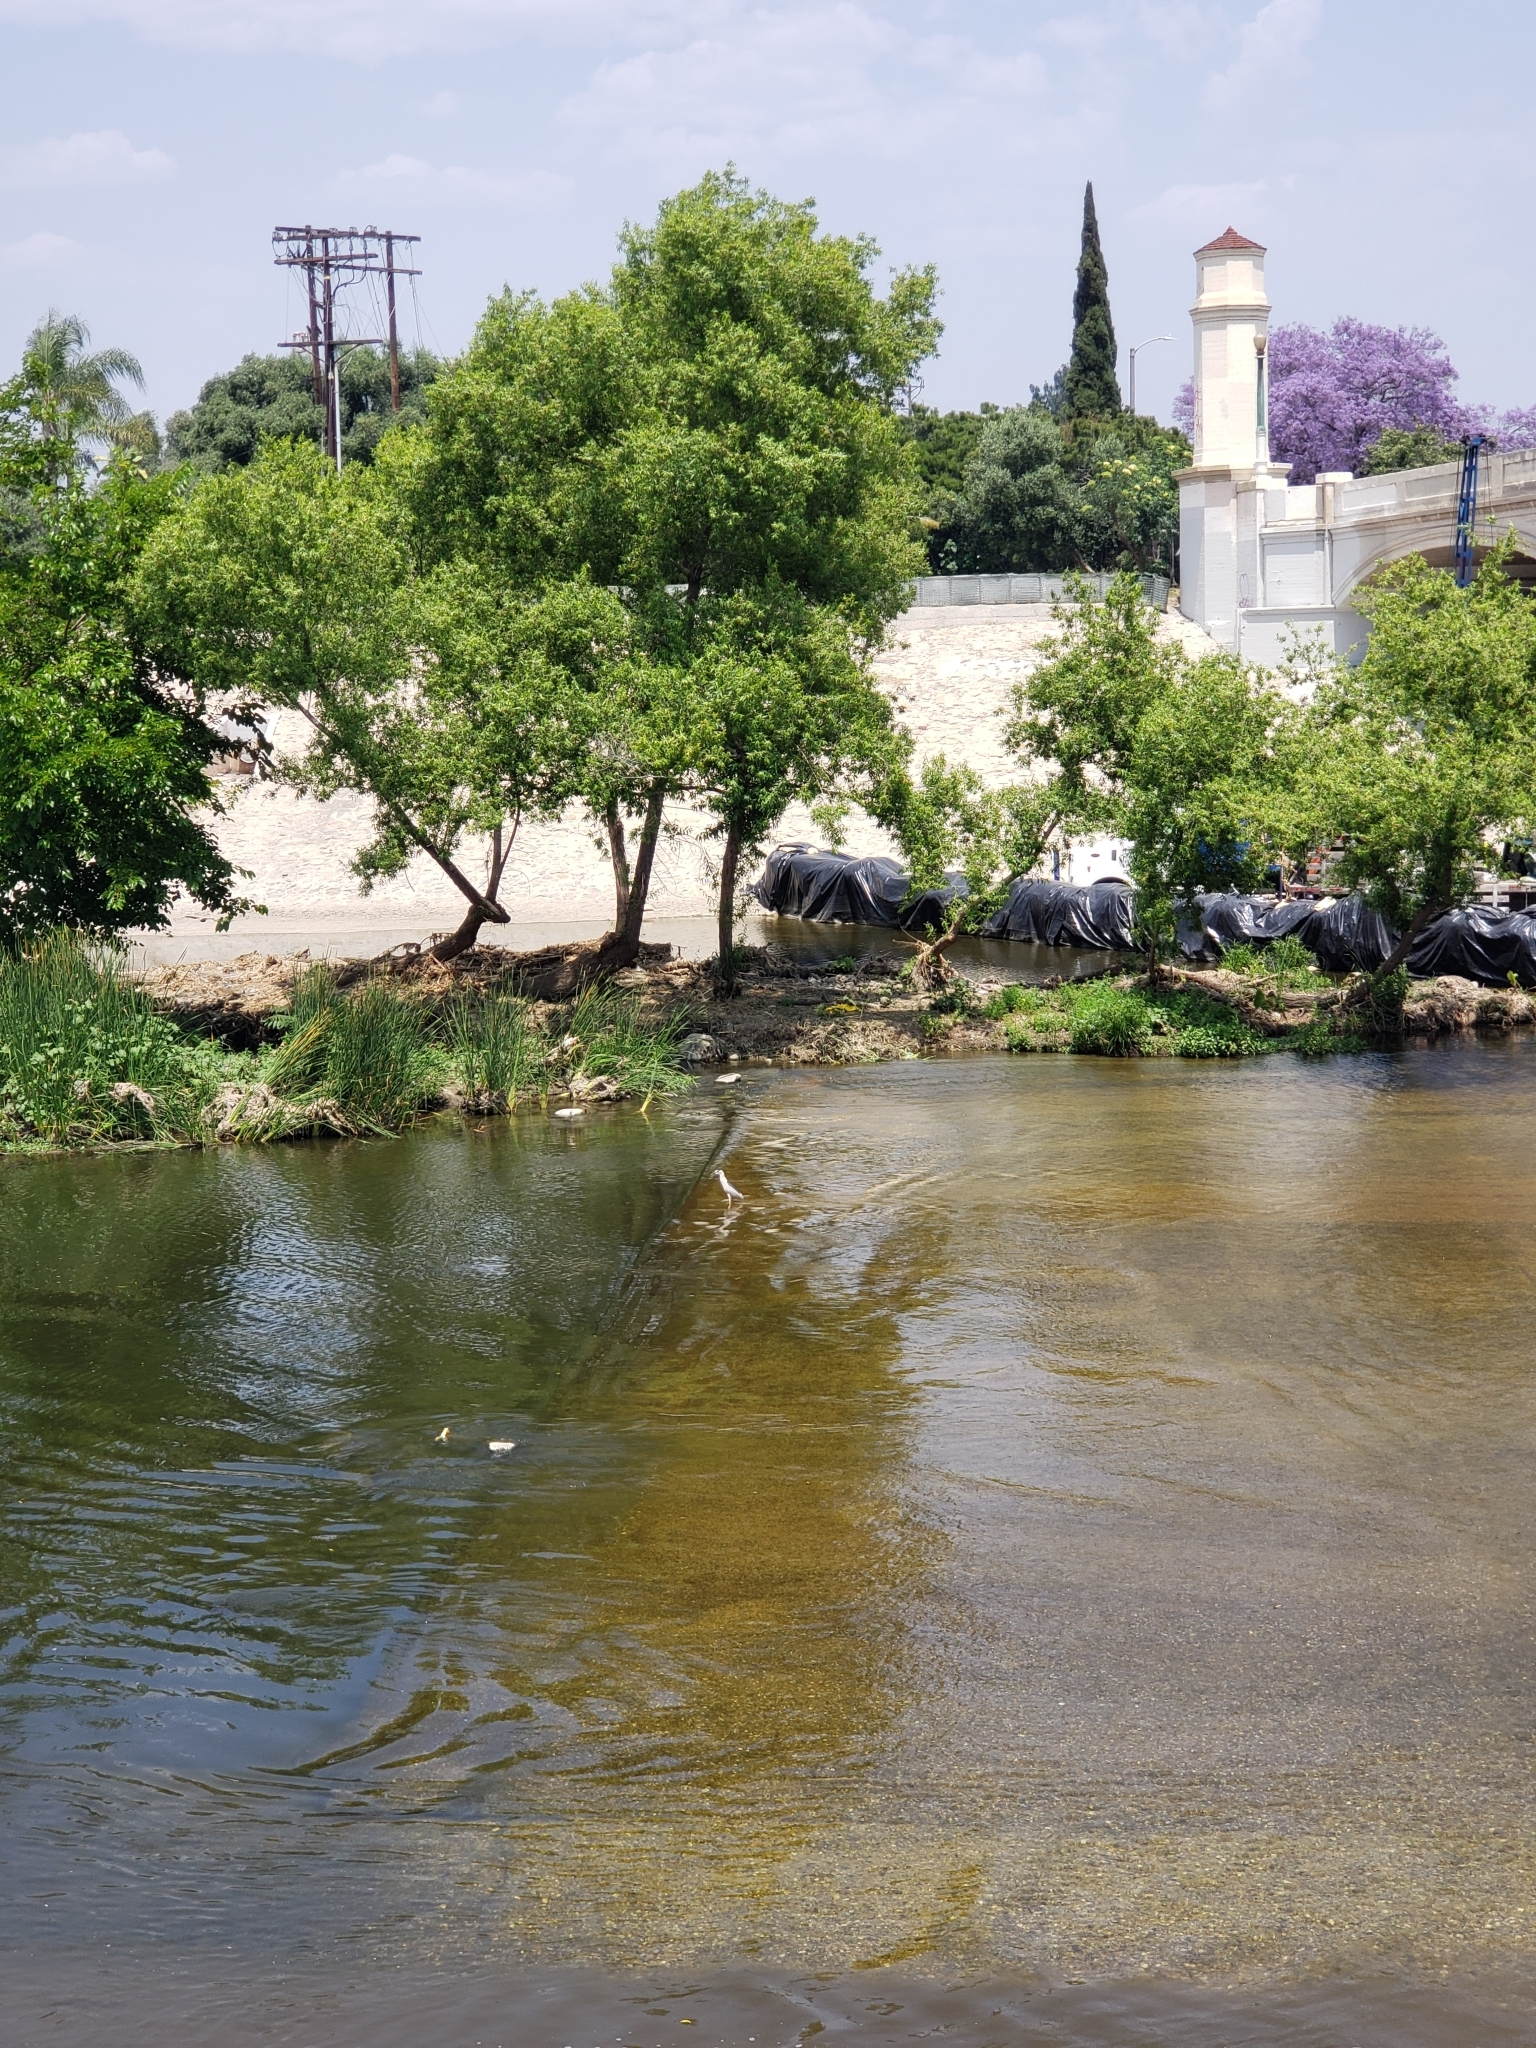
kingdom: Animalia
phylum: Chordata
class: Aves
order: Pelecaniformes
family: Ardeidae
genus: Nycticorax
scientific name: Nycticorax nycticorax
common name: Black-crowned night heron
